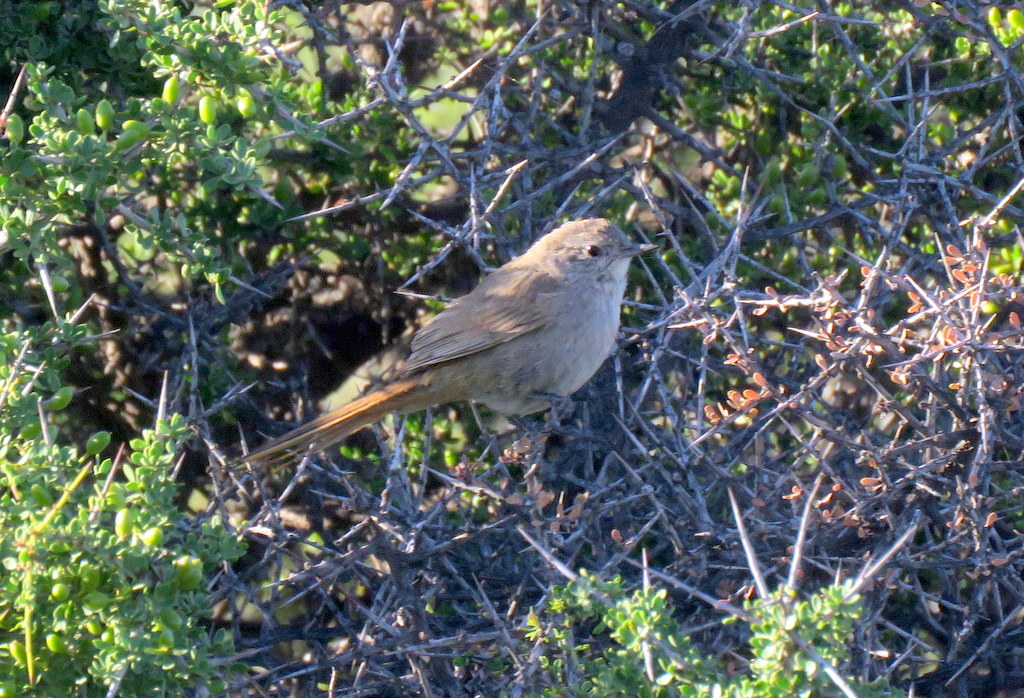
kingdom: Animalia
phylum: Chordata
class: Aves
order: Passeriformes
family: Furnariidae
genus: Asthenes
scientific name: Asthenes pyrrholeuca
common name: Sharp-billed canastero
